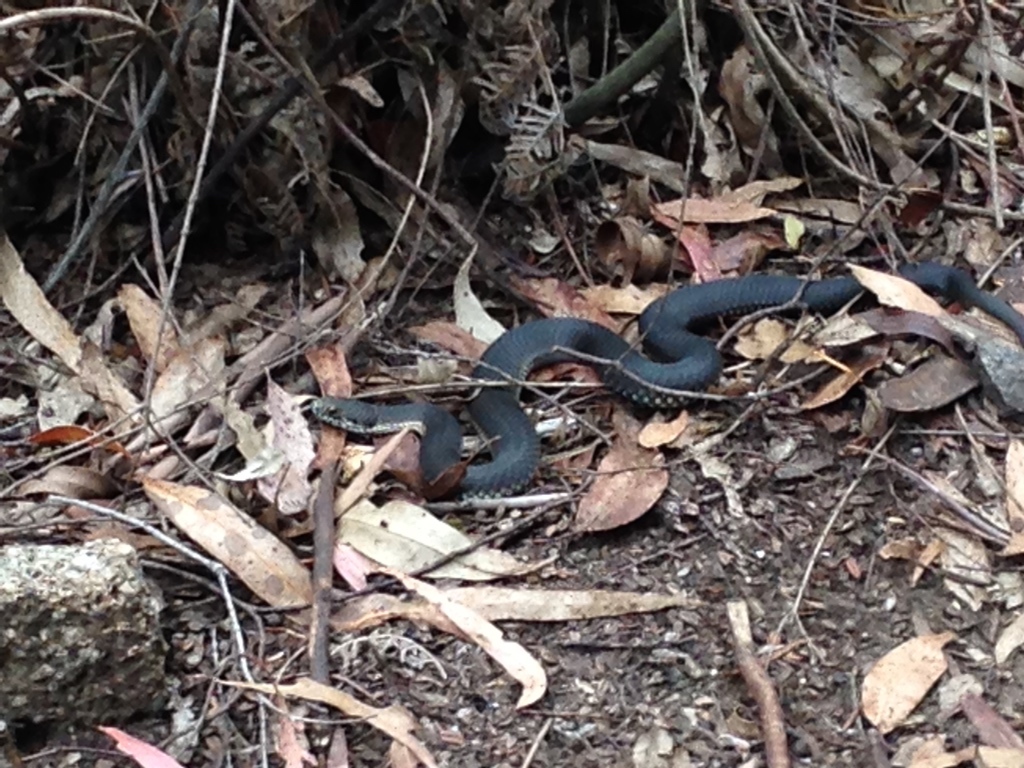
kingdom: Animalia
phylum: Chordata
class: Squamata
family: Elapidae
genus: Austrelaps
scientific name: Austrelaps ramsayi
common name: Highlands copperhead
